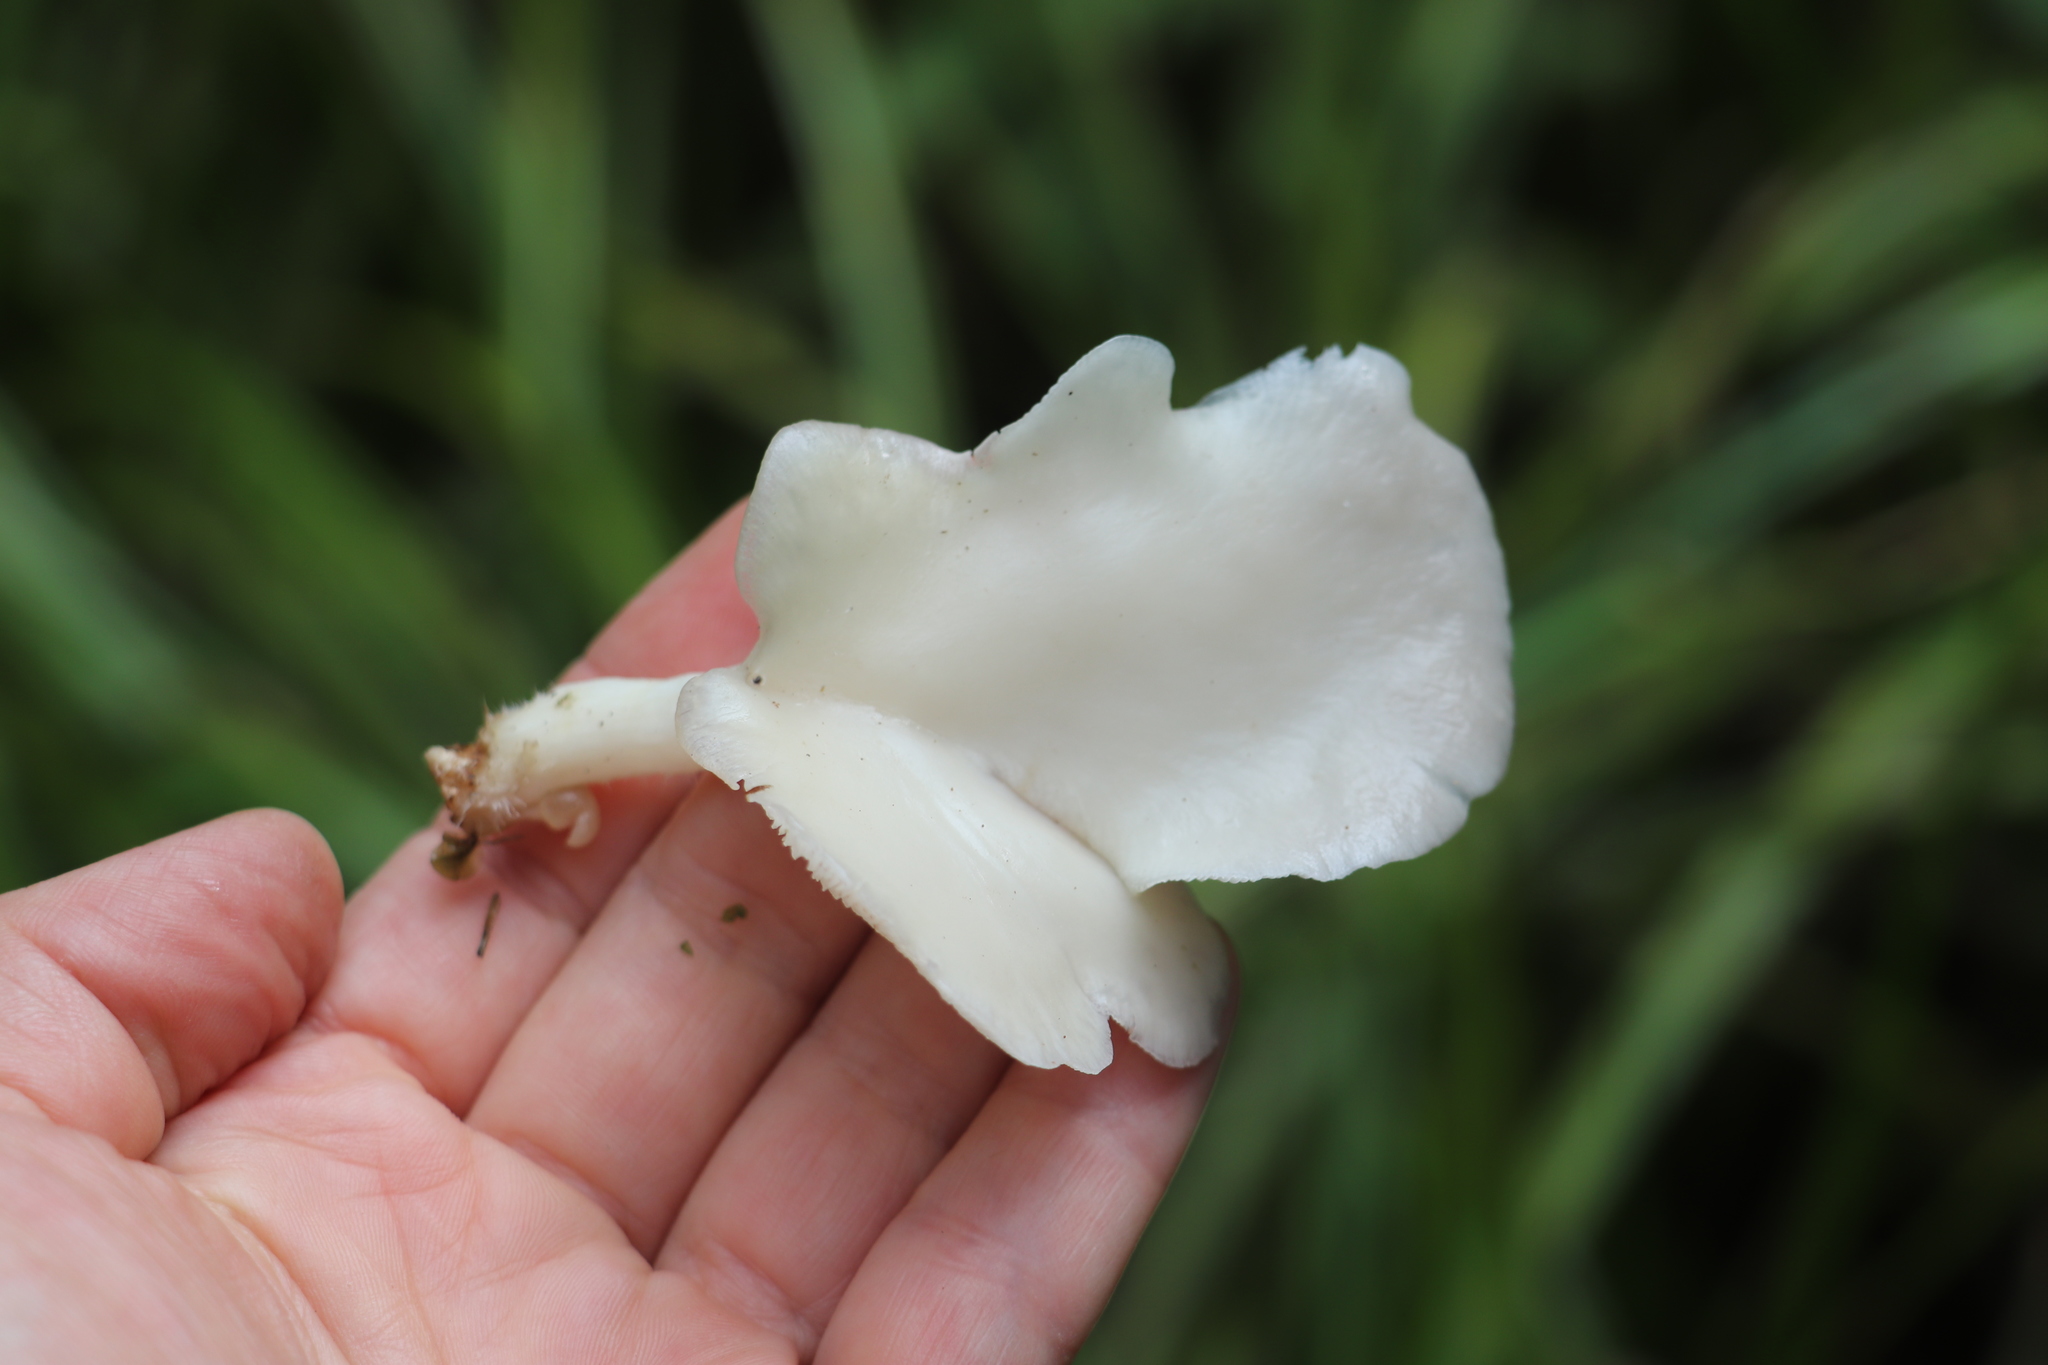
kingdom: Fungi
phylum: Basidiomycota
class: Agaricomycetes
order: Agaricales
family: Pleurotaceae
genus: Pleurotus
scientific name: Pleurotus pulmonarius
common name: Pale oyster
